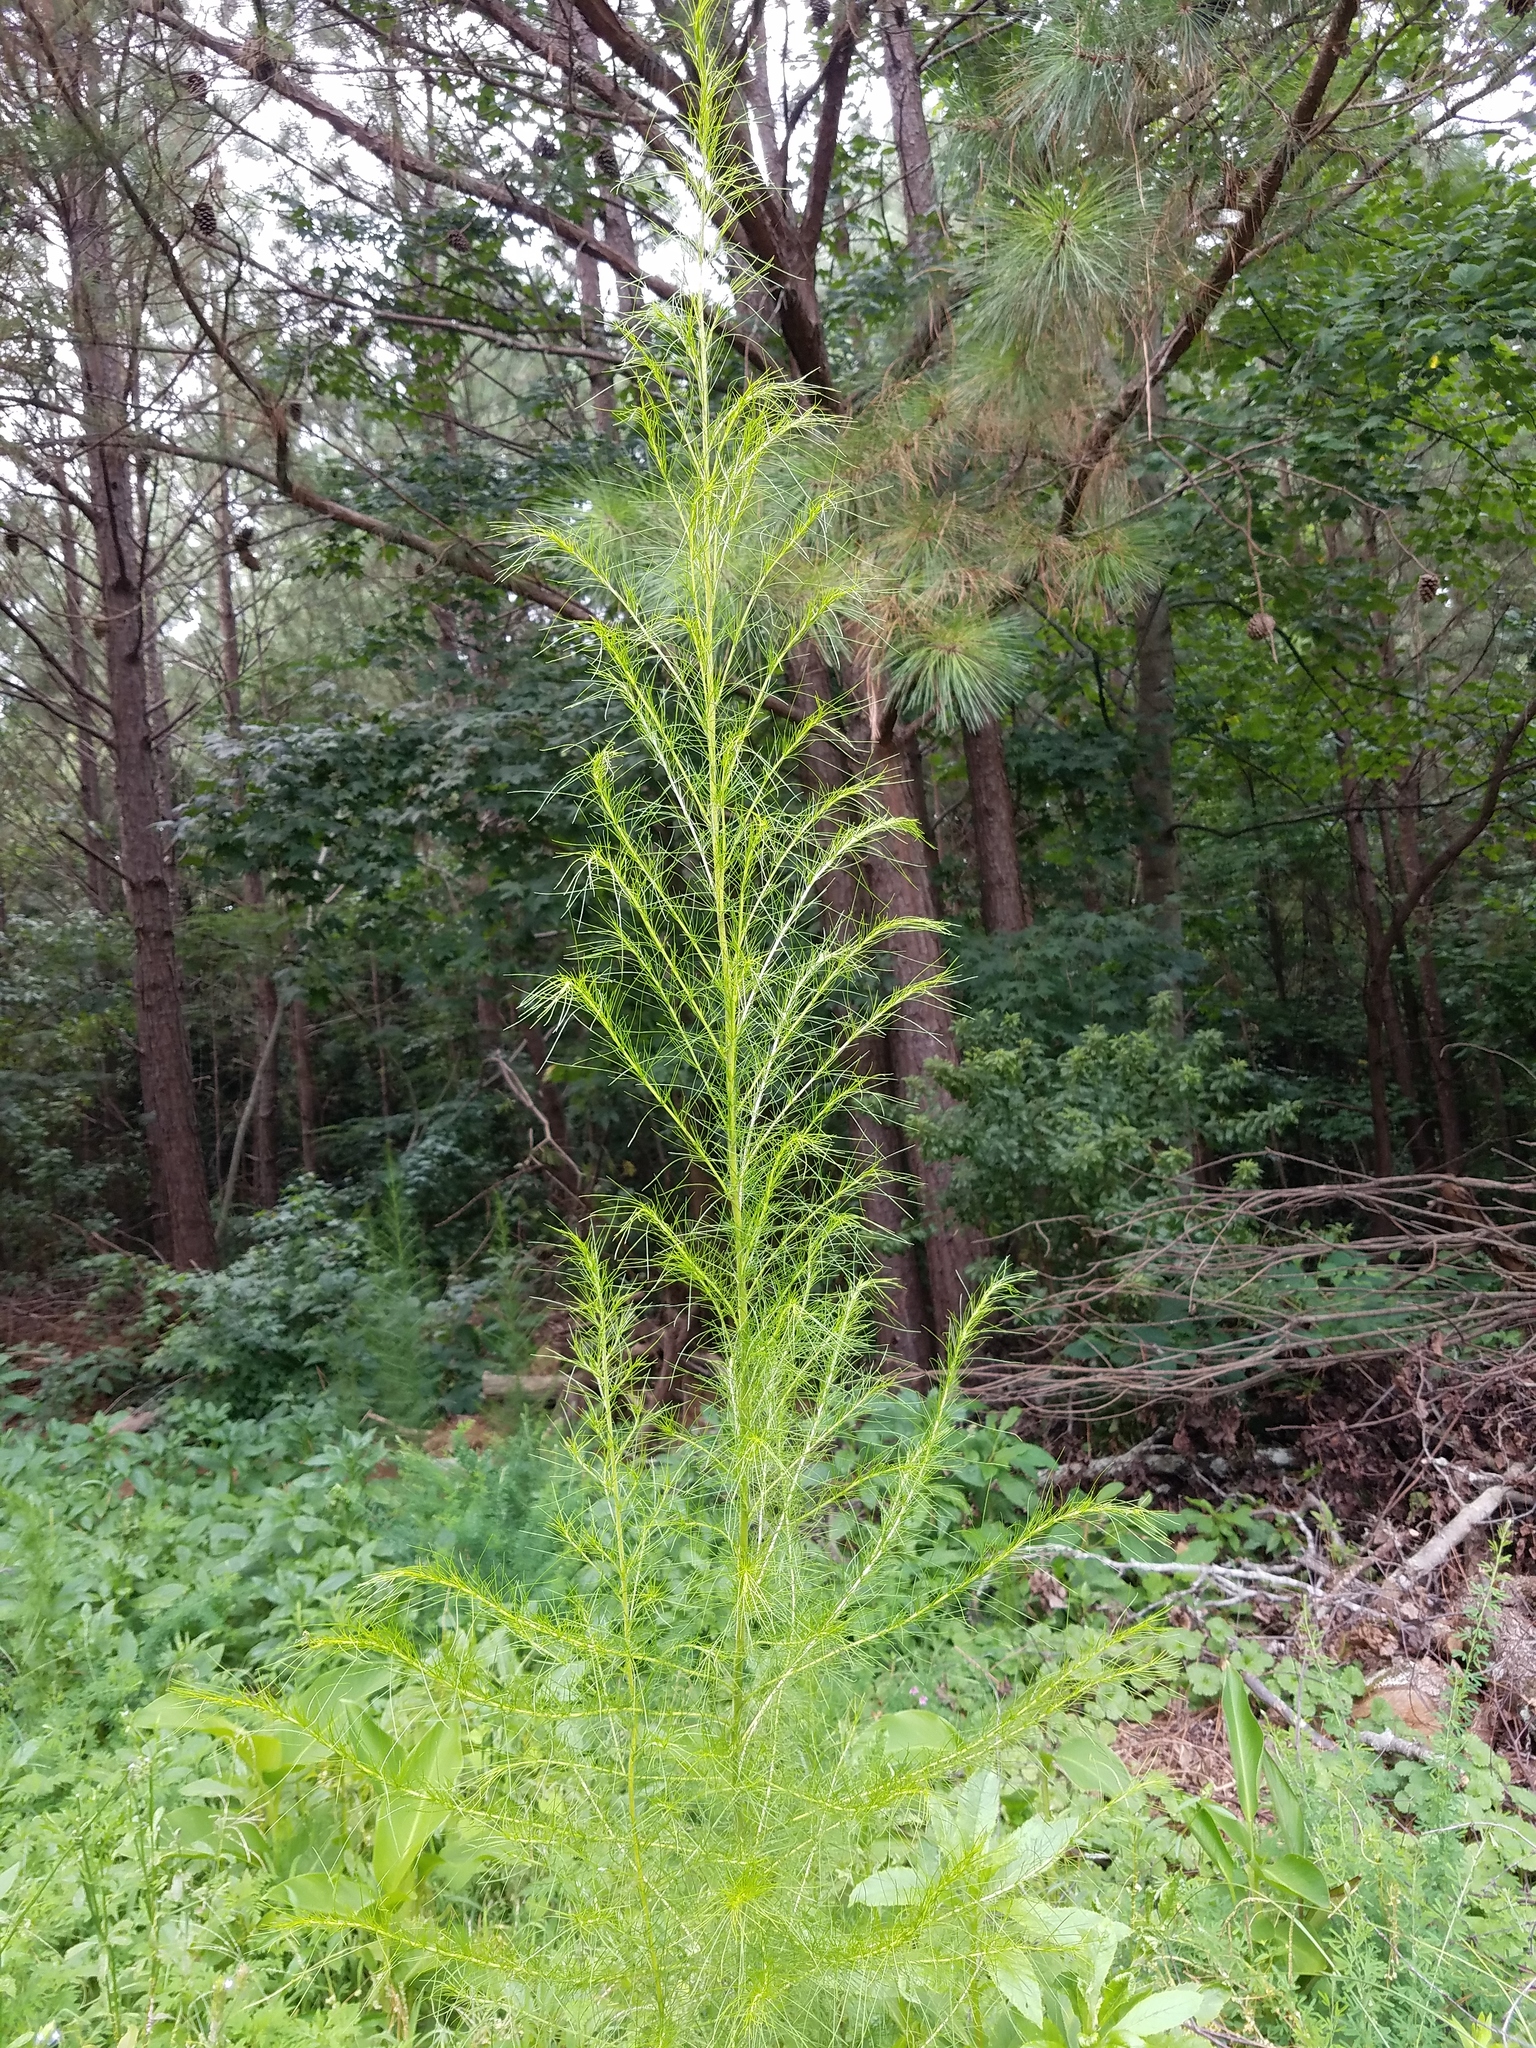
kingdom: Plantae
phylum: Tracheophyta
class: Magnoliopsida
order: Asterales
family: Asteraceae
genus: Eupatorium
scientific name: Eupatorium capillifolium
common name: Dog-fennel
